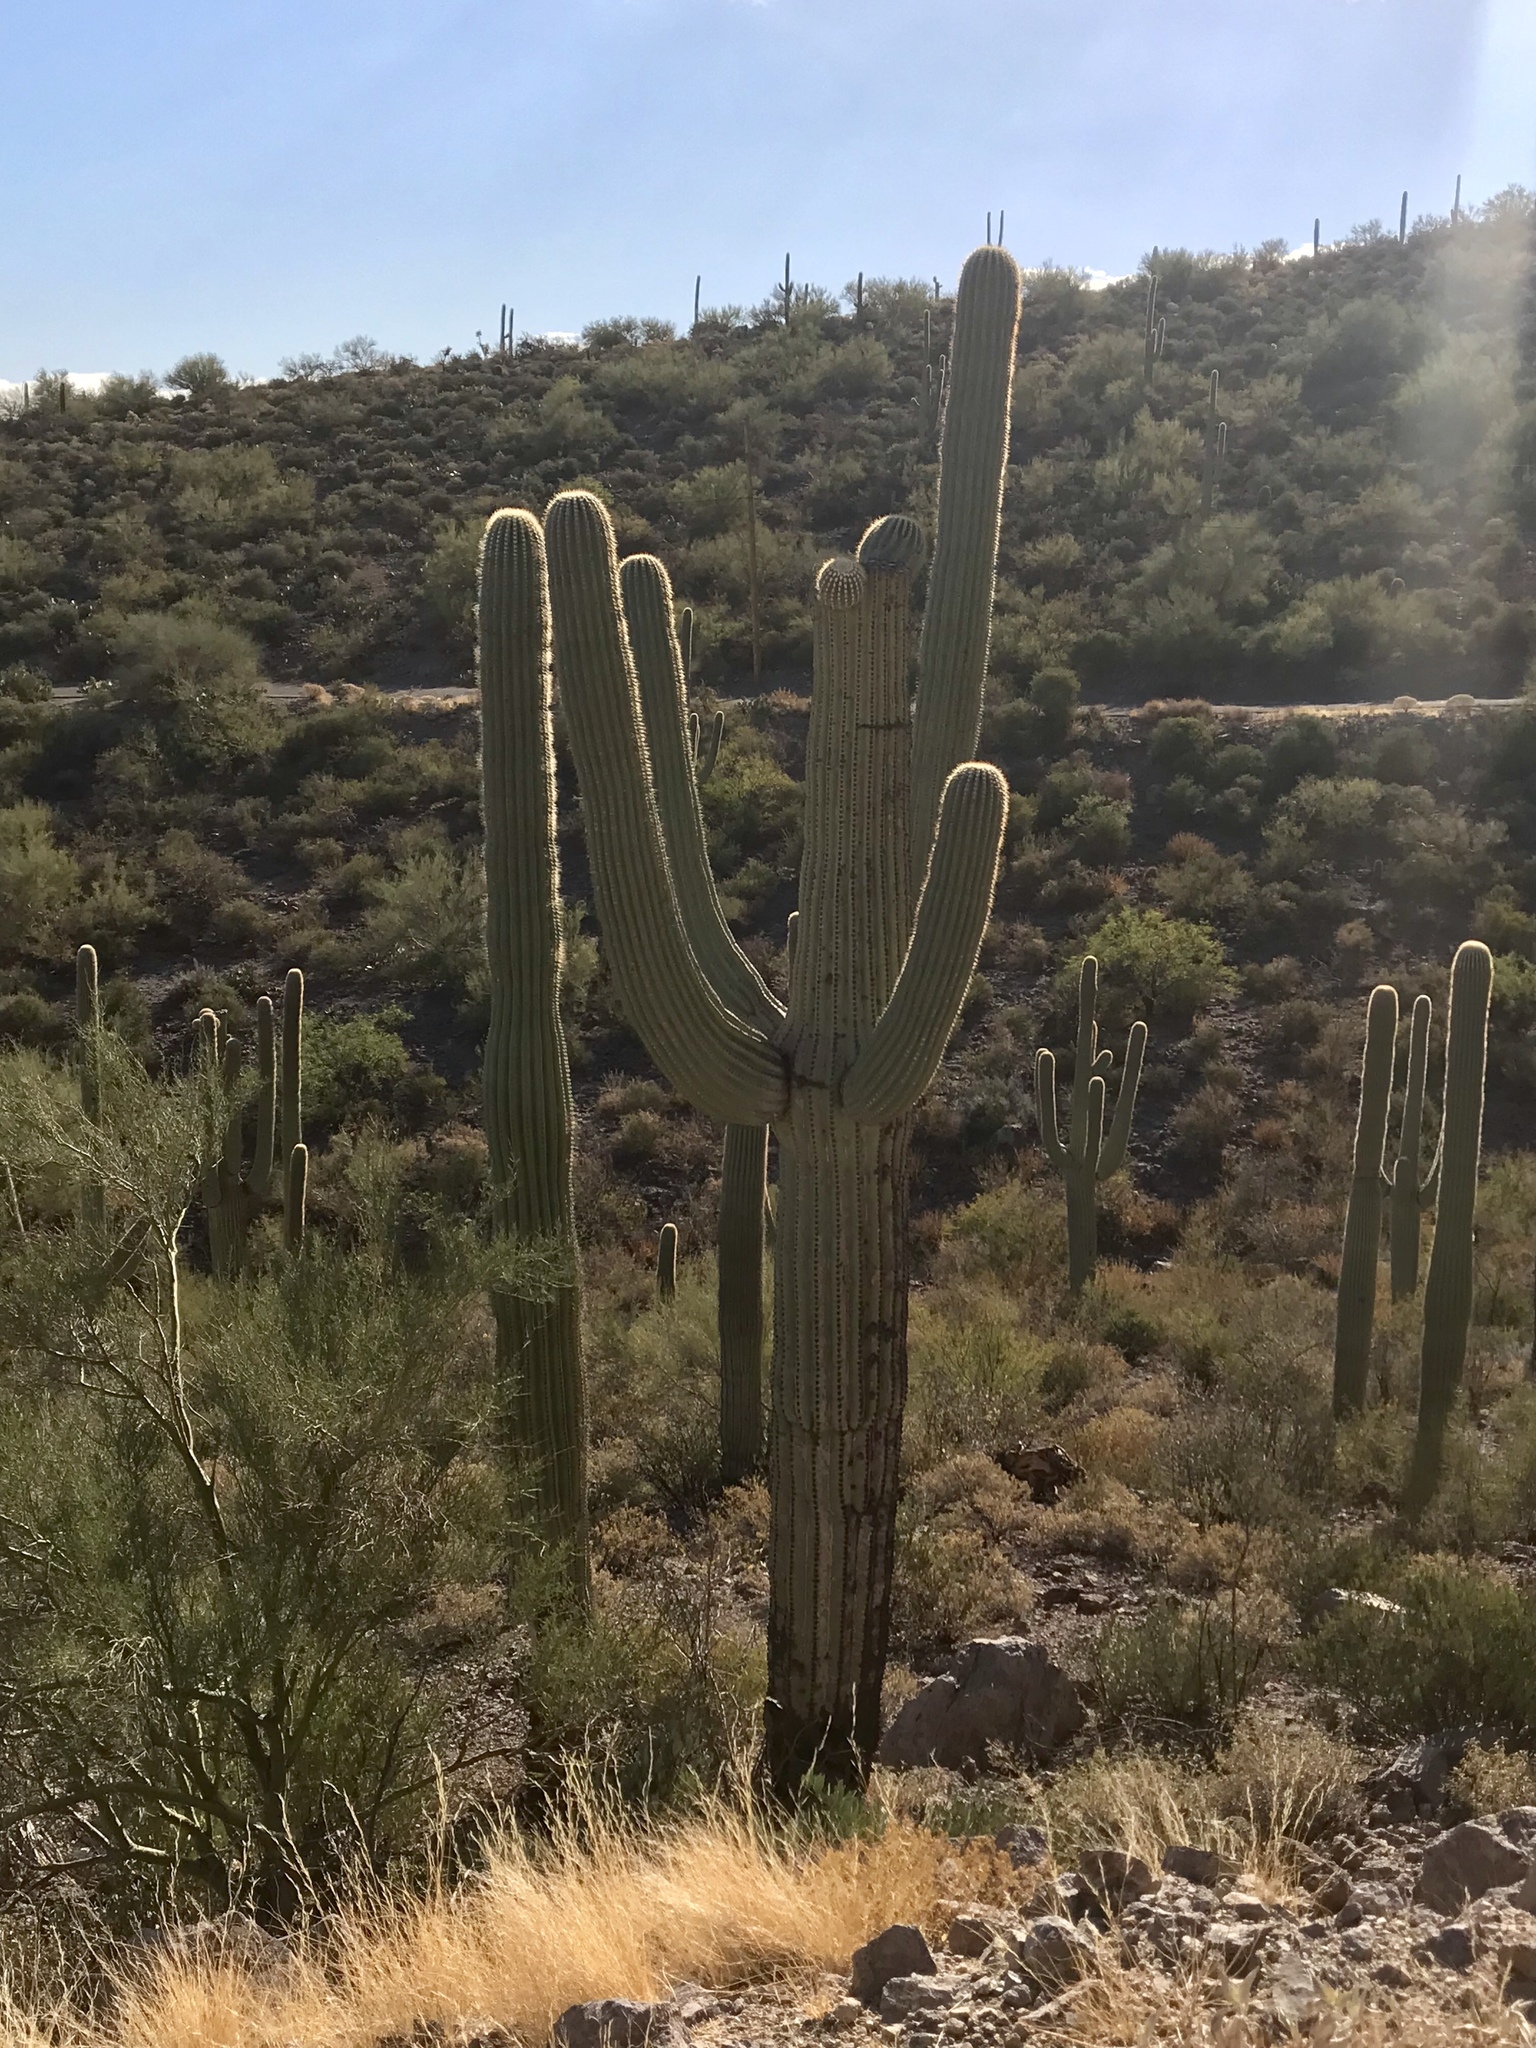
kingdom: Plantae
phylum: Tracheophyta
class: Magnoliopsida
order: Caryophyllales
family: Cactaceae
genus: Carnegiea
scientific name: Carnegiea gigantea
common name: Saguaro
